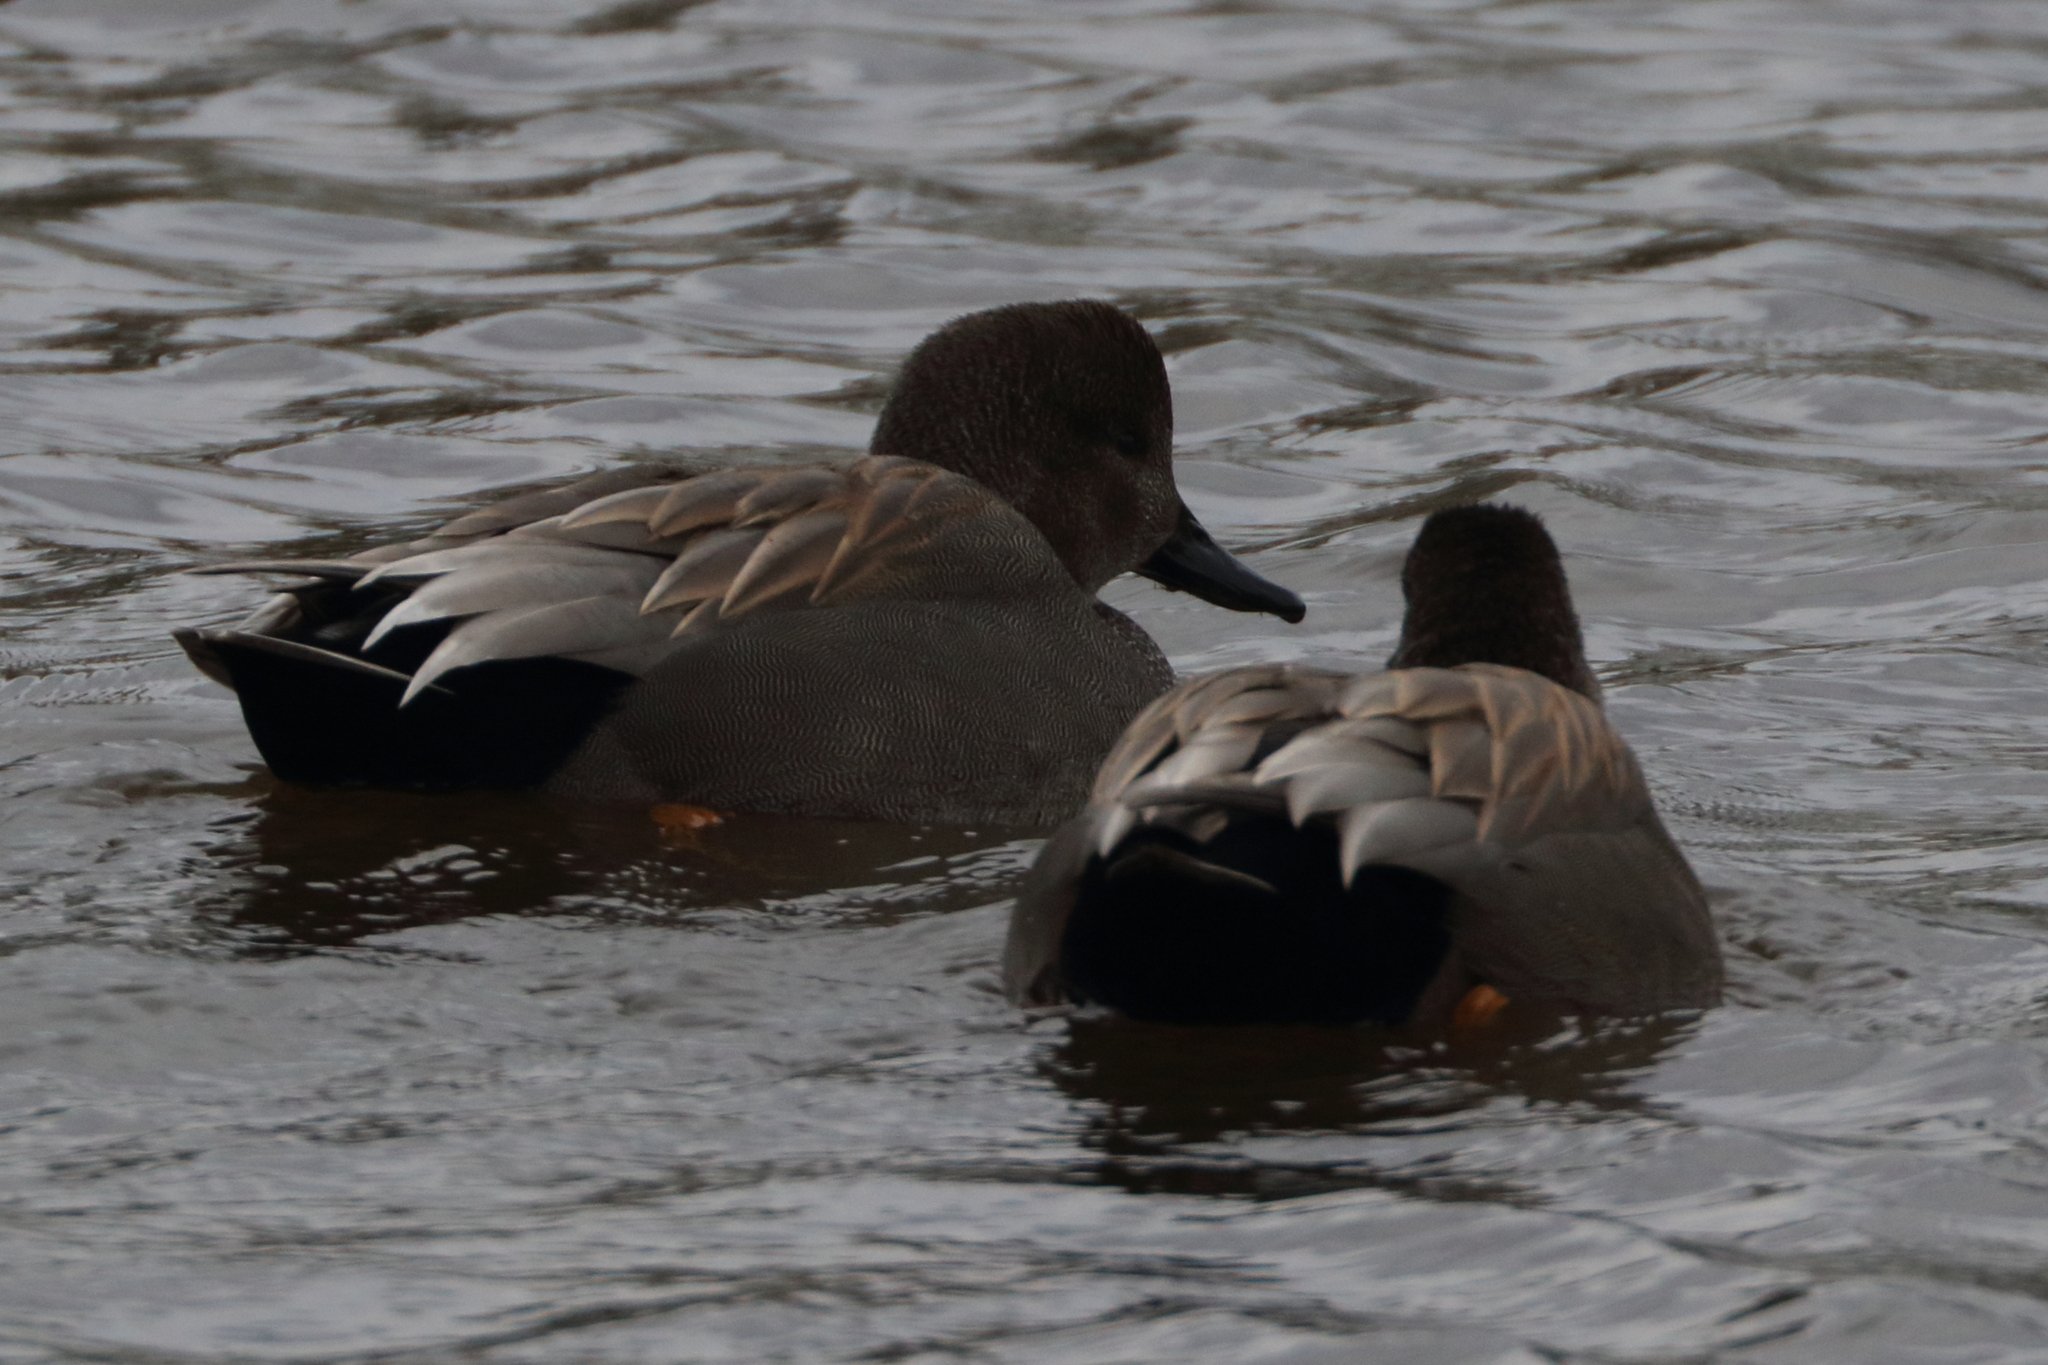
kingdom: Animalia
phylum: Chordata
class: Aves
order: Anseriformes
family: Anatidae
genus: Mareca
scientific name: Mareca strepera
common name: Gadwall
